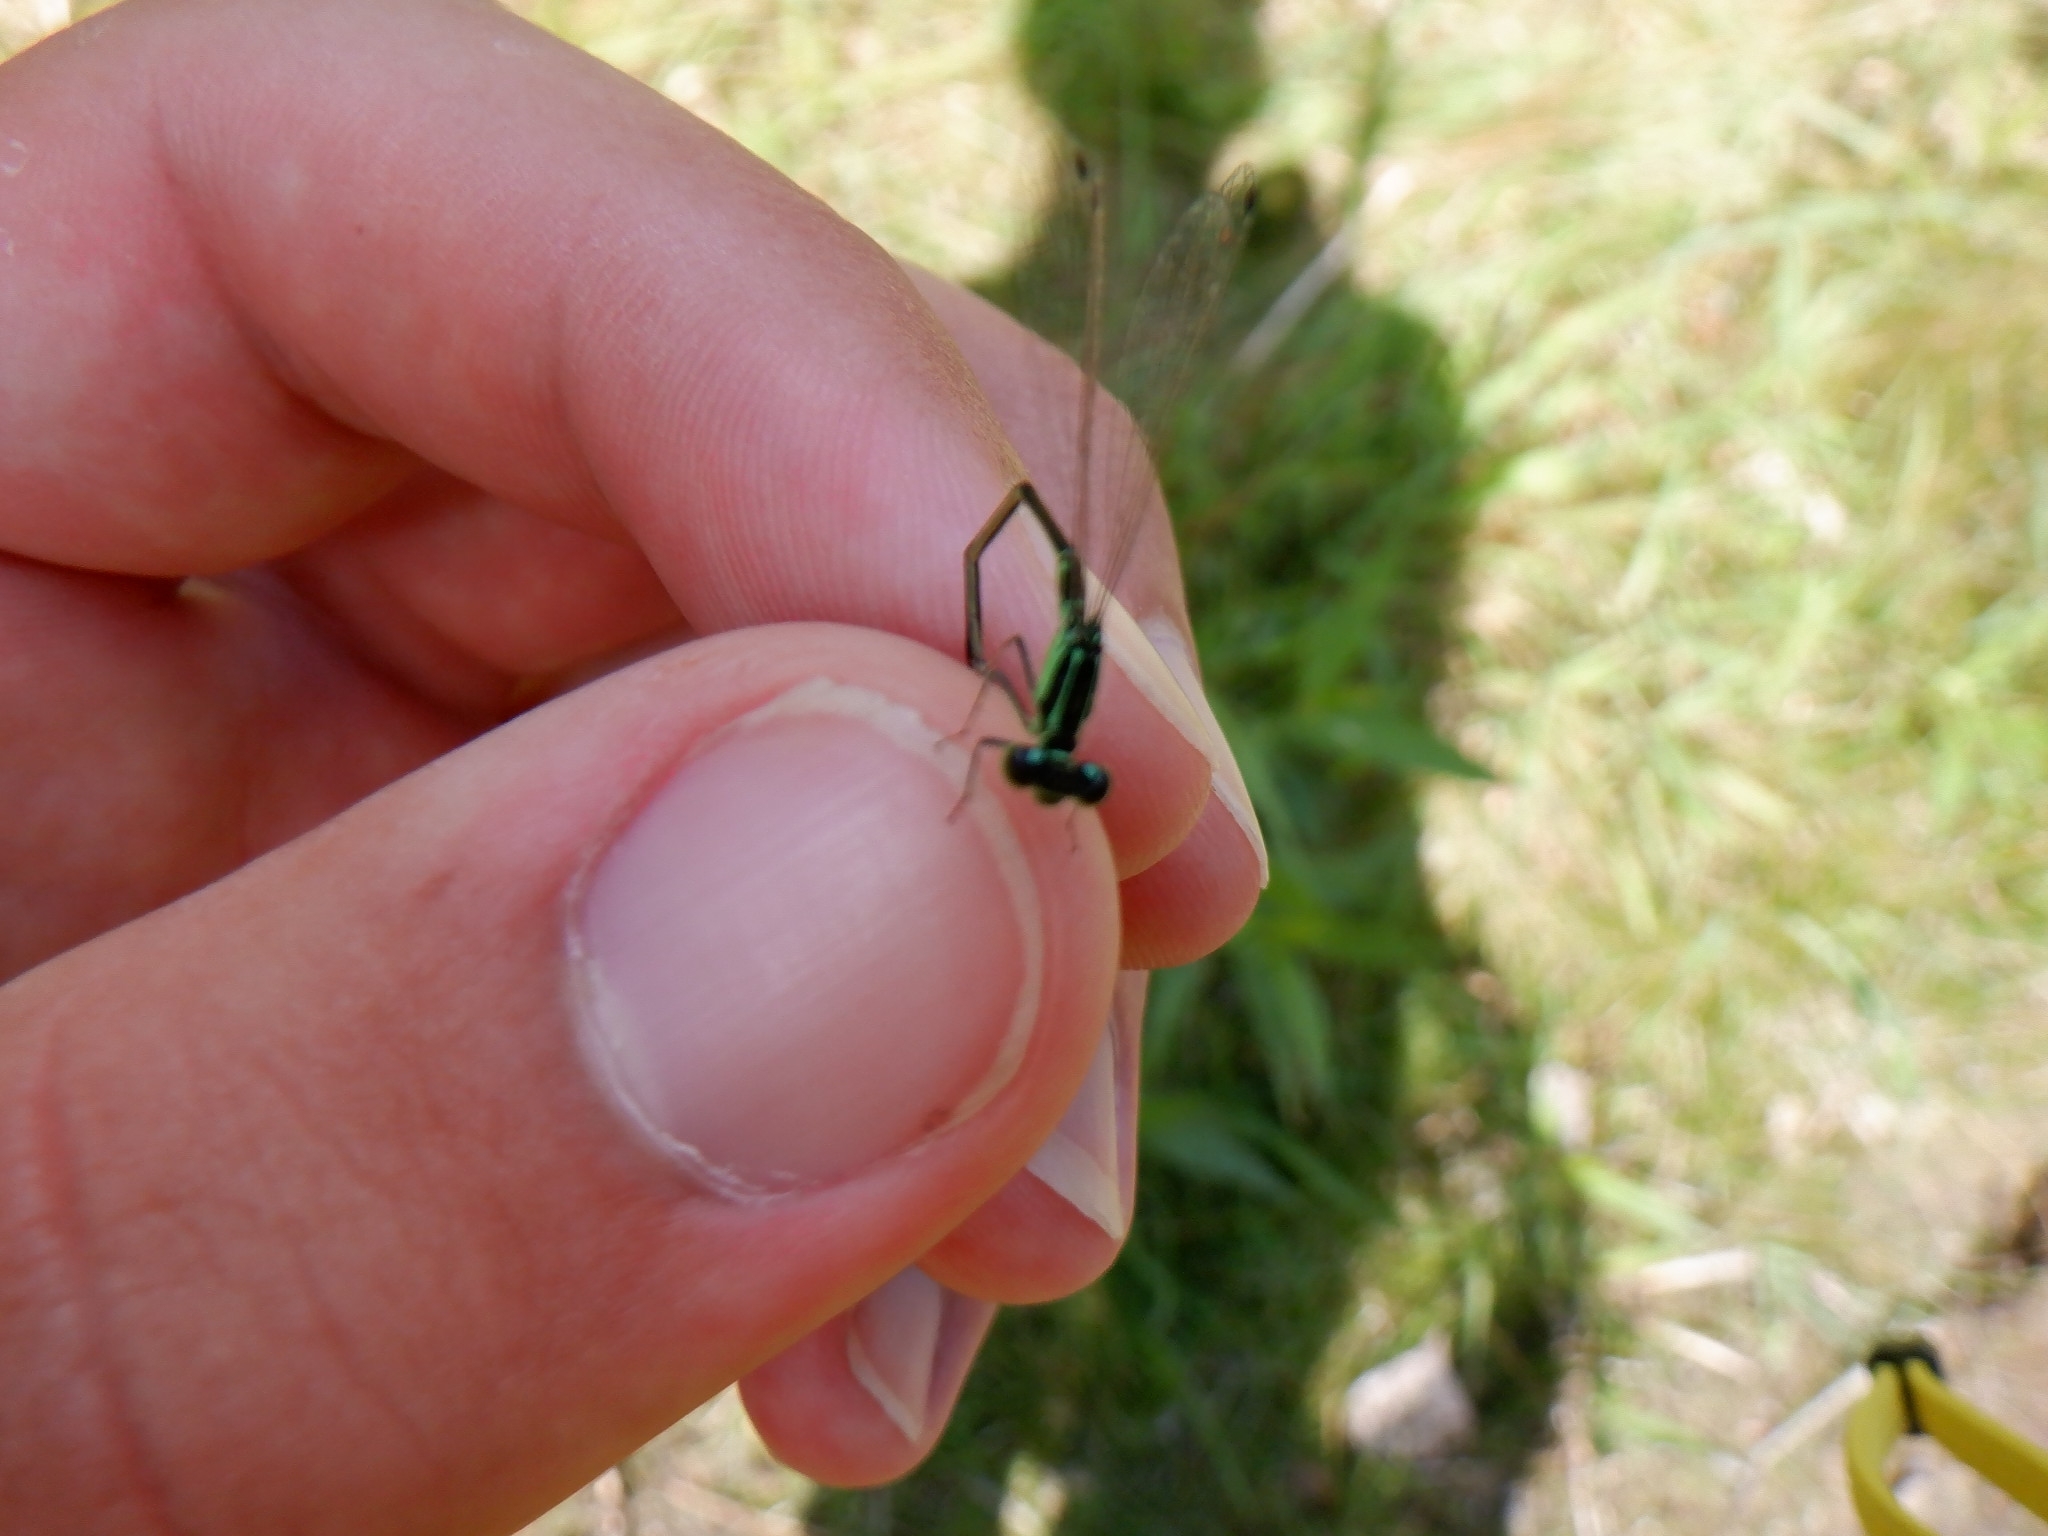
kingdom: Animalia
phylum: Arthropoda
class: Insecta
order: Odonata
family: Coenagrionidae
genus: Ischnura
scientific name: Ischnura verticalis
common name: Eastern forktail
